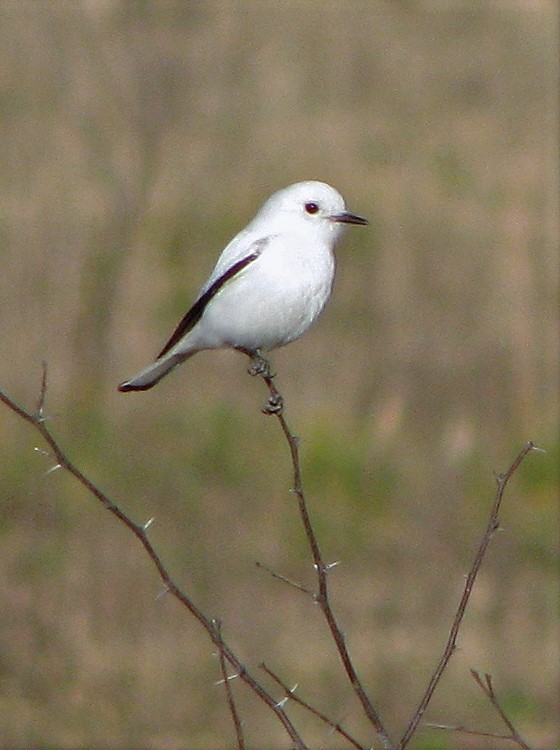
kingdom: Animalia
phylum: Chordata
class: Aves
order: Passeriformes
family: Tyrannidae
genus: Xolmis
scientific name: Xolmis irupero
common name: White monjita
